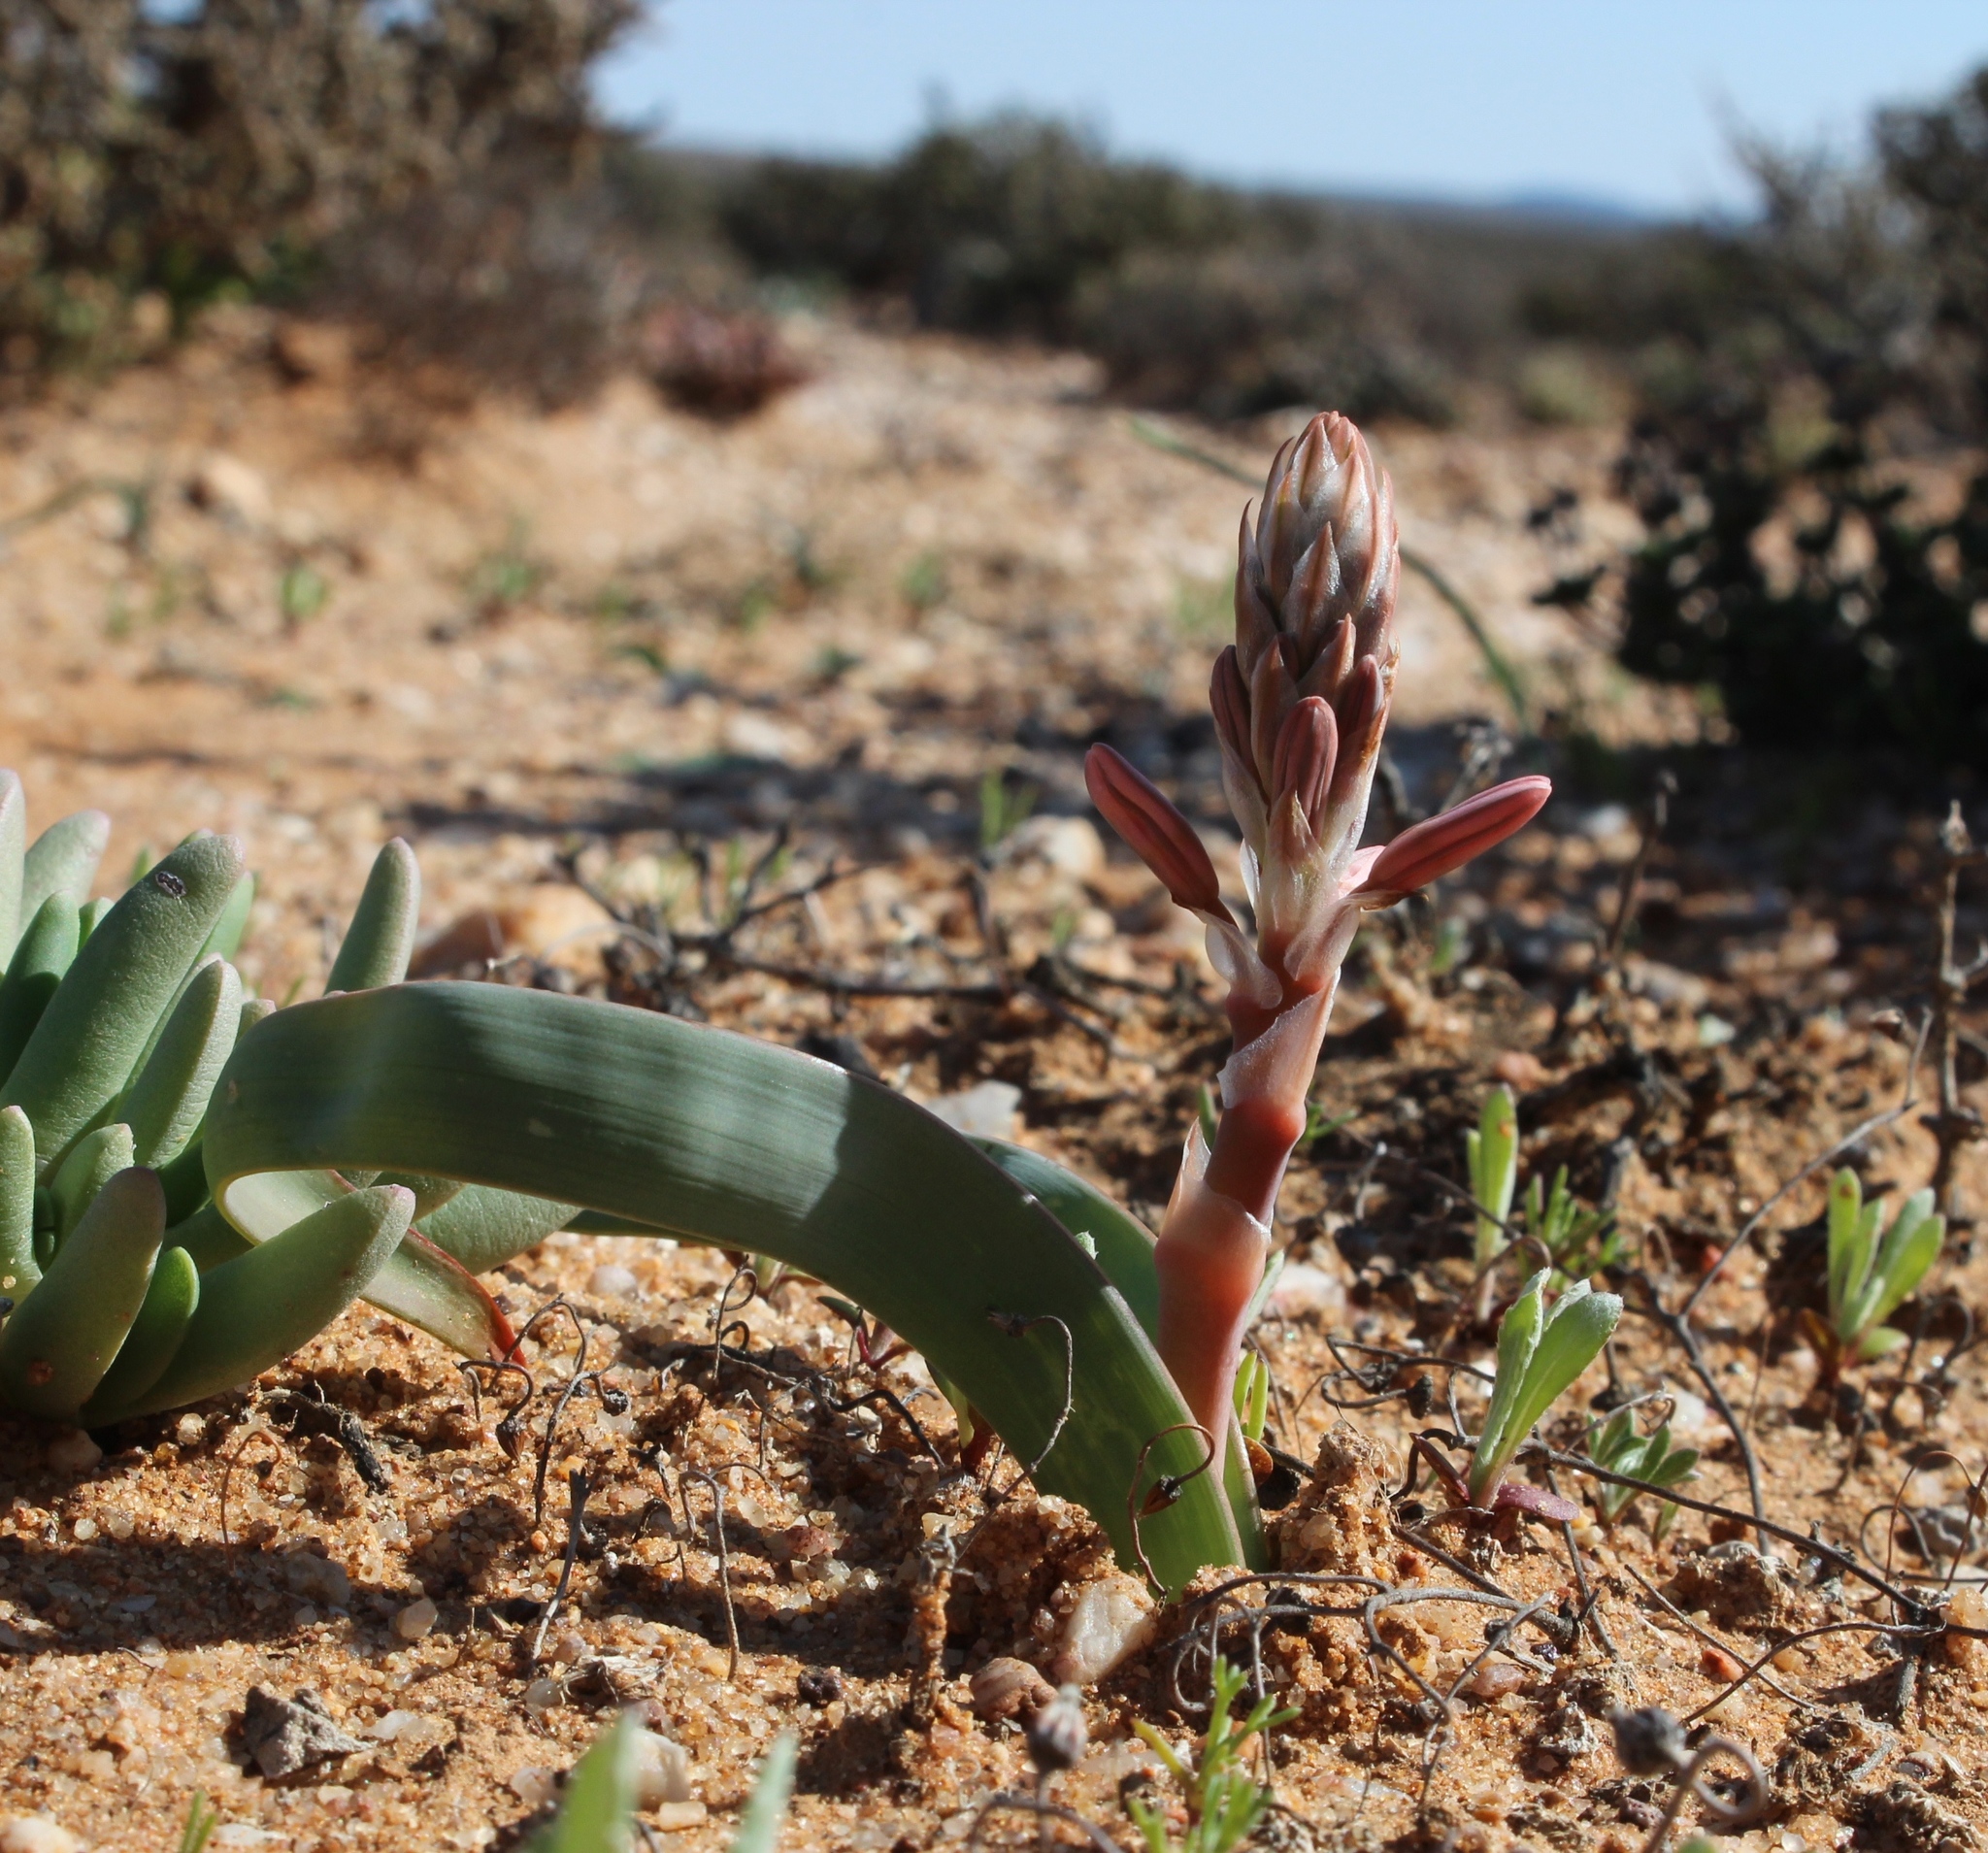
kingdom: Plantae
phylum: Tracheophyta
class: Liliopsida
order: Asparagales
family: Asphodelaceae
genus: Trachyandra
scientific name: Trachyandra falcata
